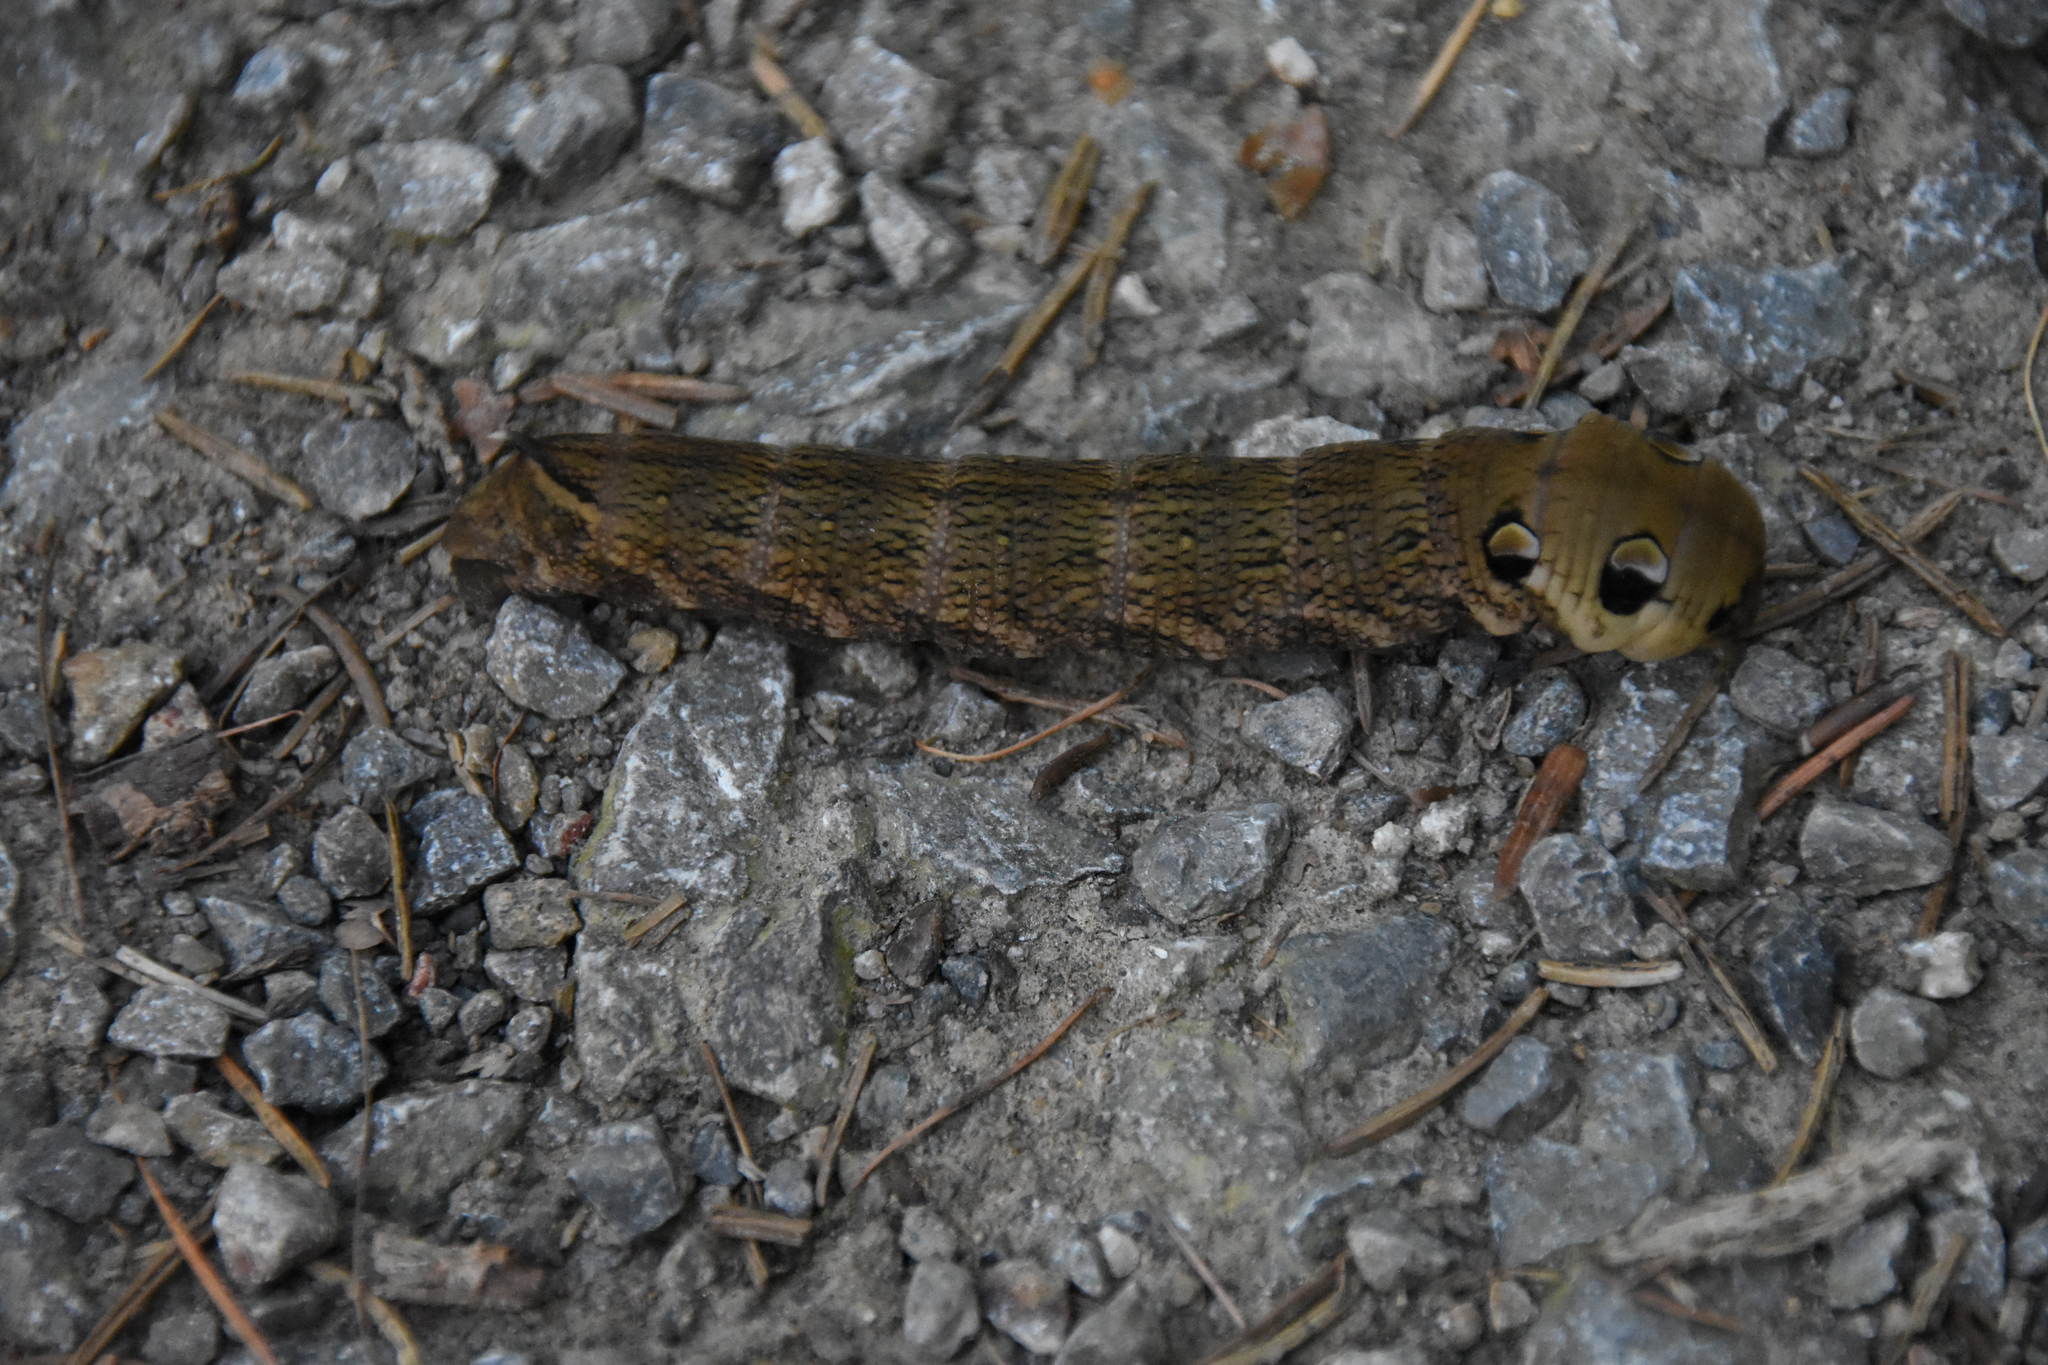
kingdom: Animalia
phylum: Arthropoda
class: Insecta
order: Lepidoptera
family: Sphingidae
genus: Deilephila
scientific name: Deilephila elpenor
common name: Elephant hawk-moth
